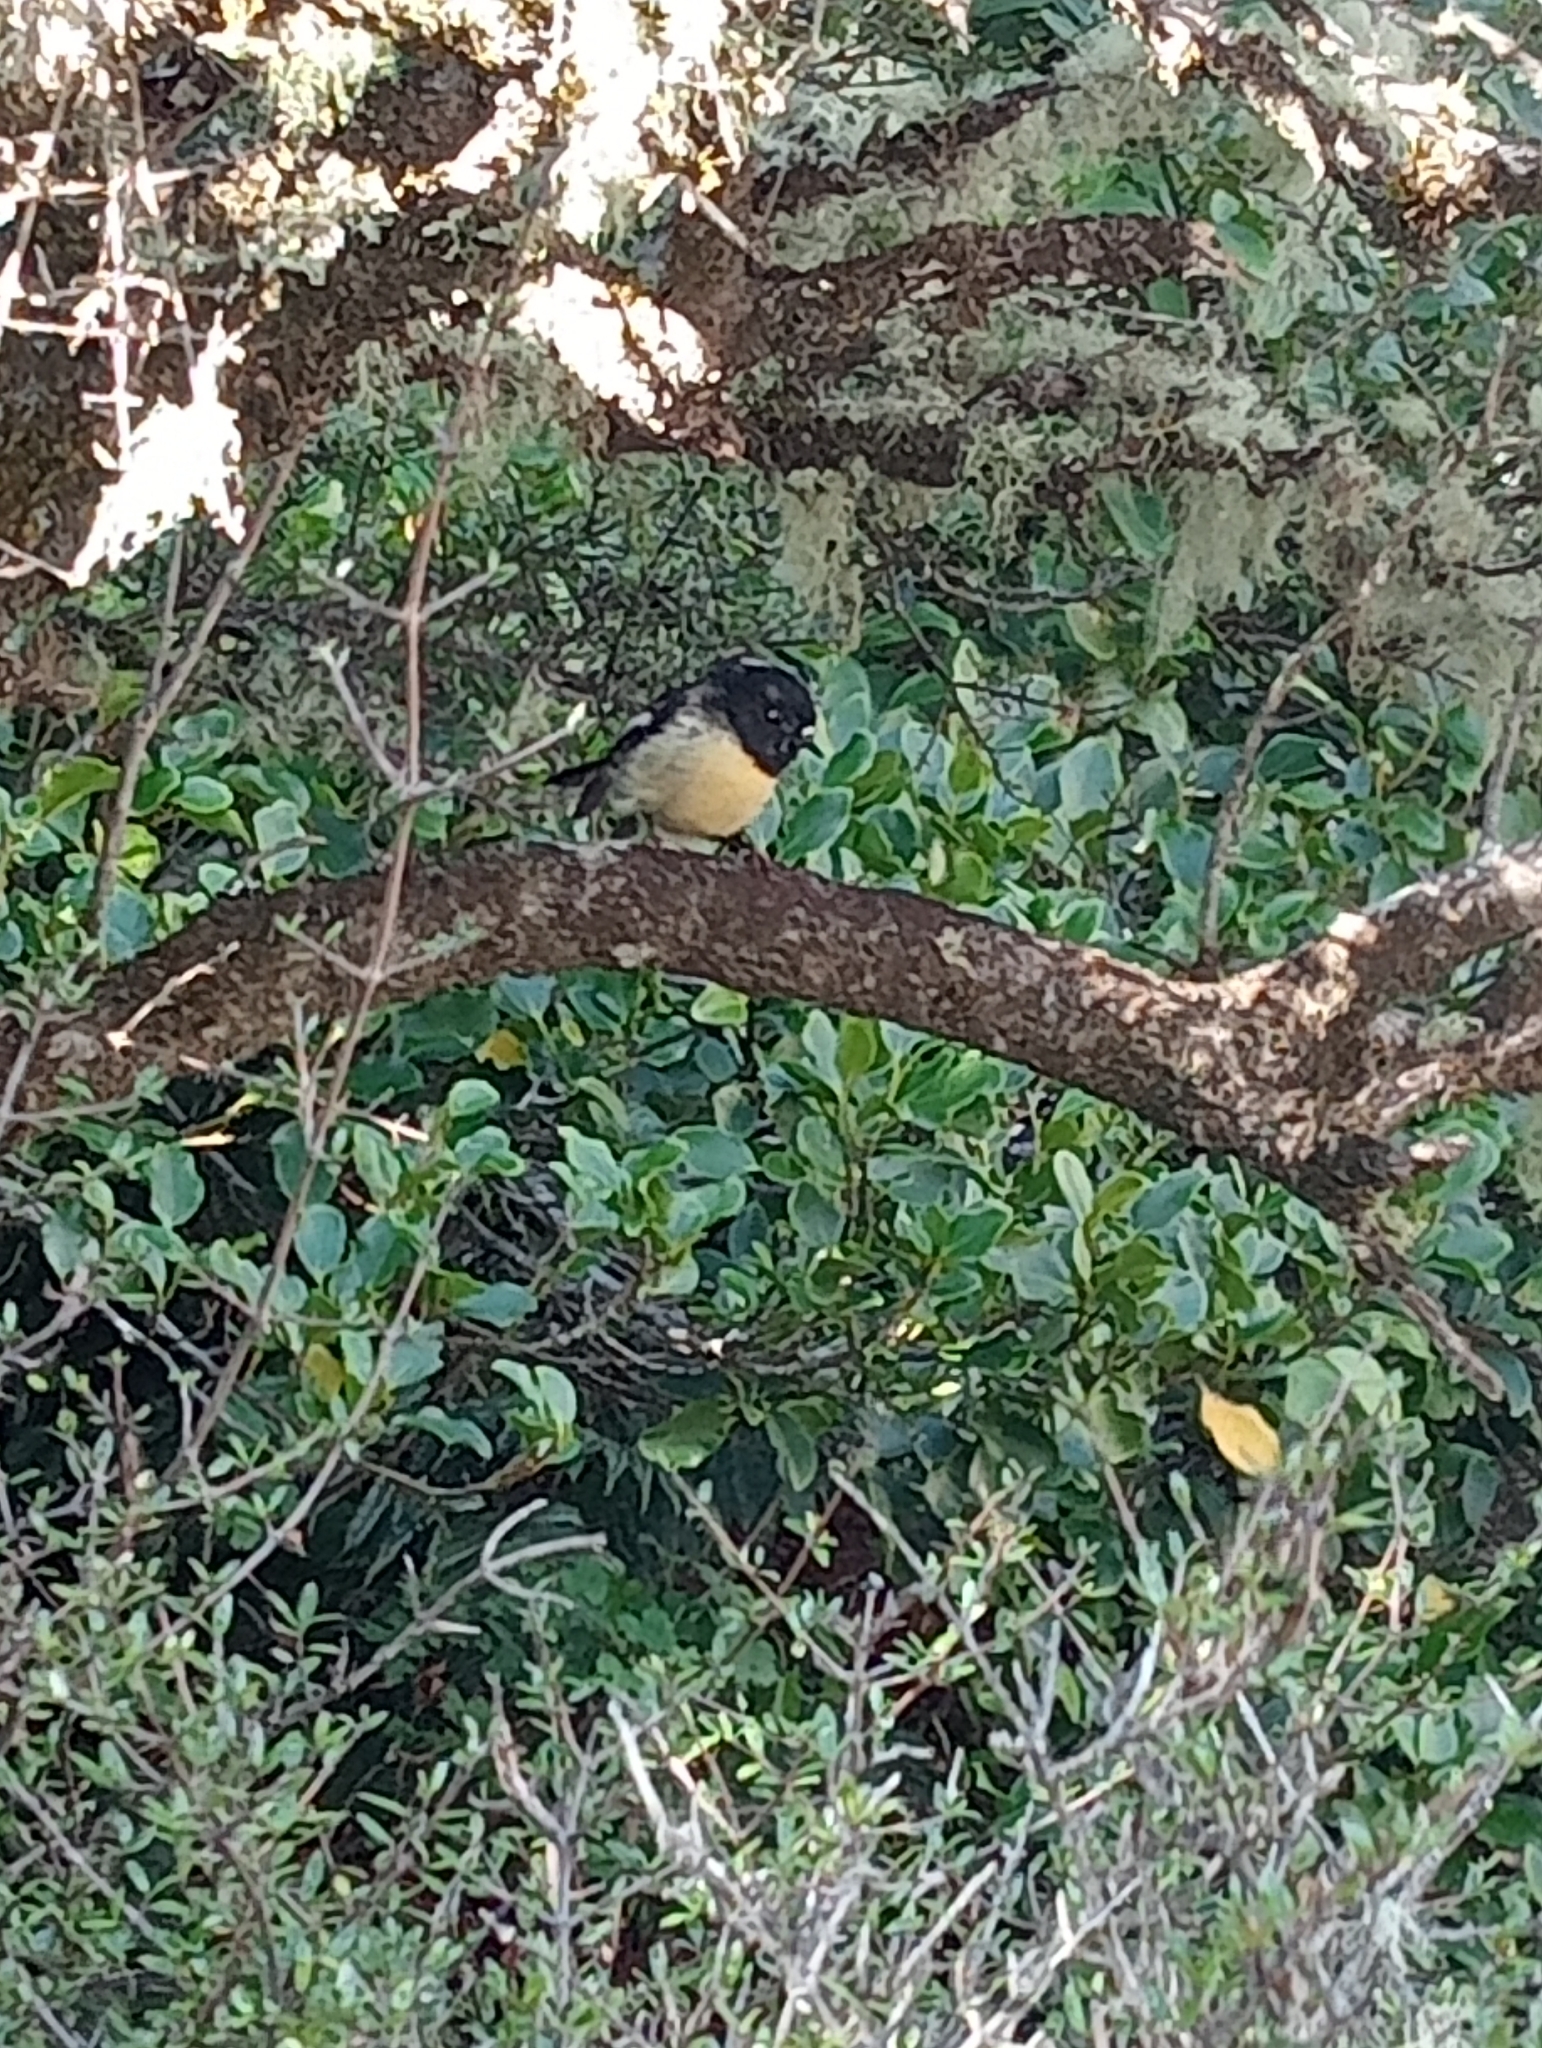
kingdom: Animalia
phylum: Chordata
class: Aves
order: Passeriformes
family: Petroicidae
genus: Petroica
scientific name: Petroica macrocephala
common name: Tomtit
